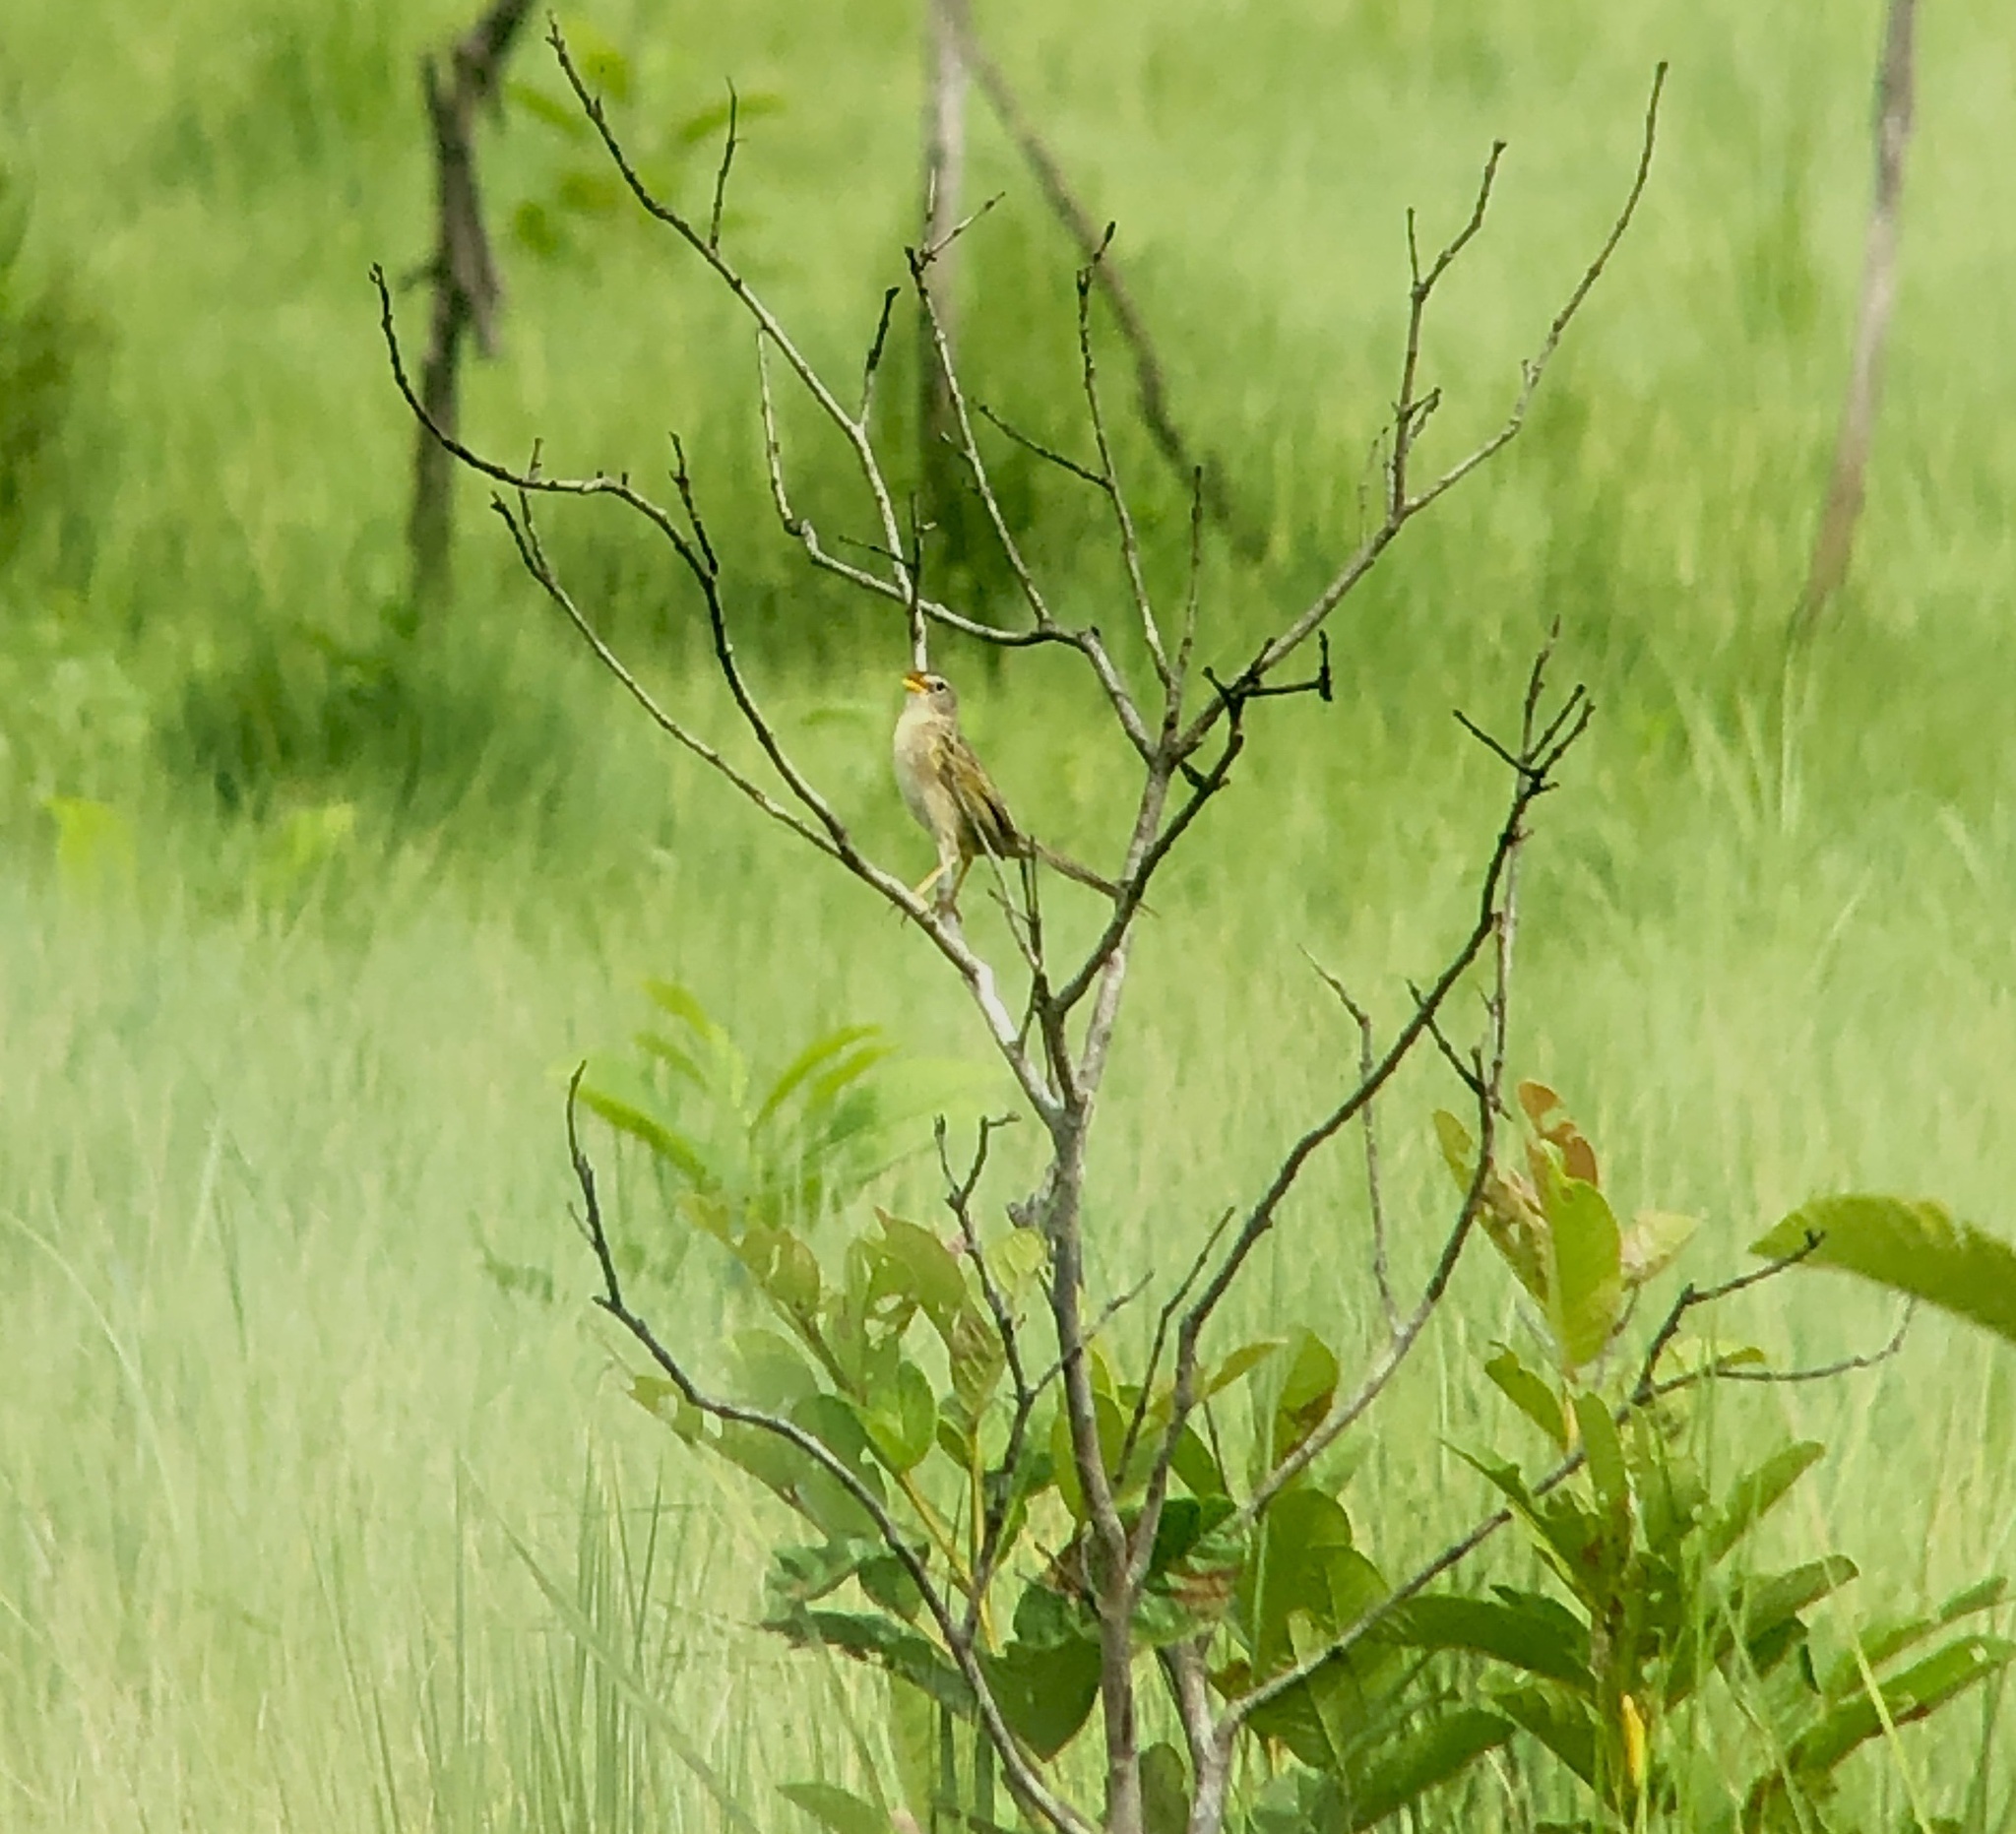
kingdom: Animalia
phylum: Chordata
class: Aves
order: Passeriformes
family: Thraupidae
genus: Emberizoides
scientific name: Emberizoides herbicola
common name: Wedge-tailed grass-finch
